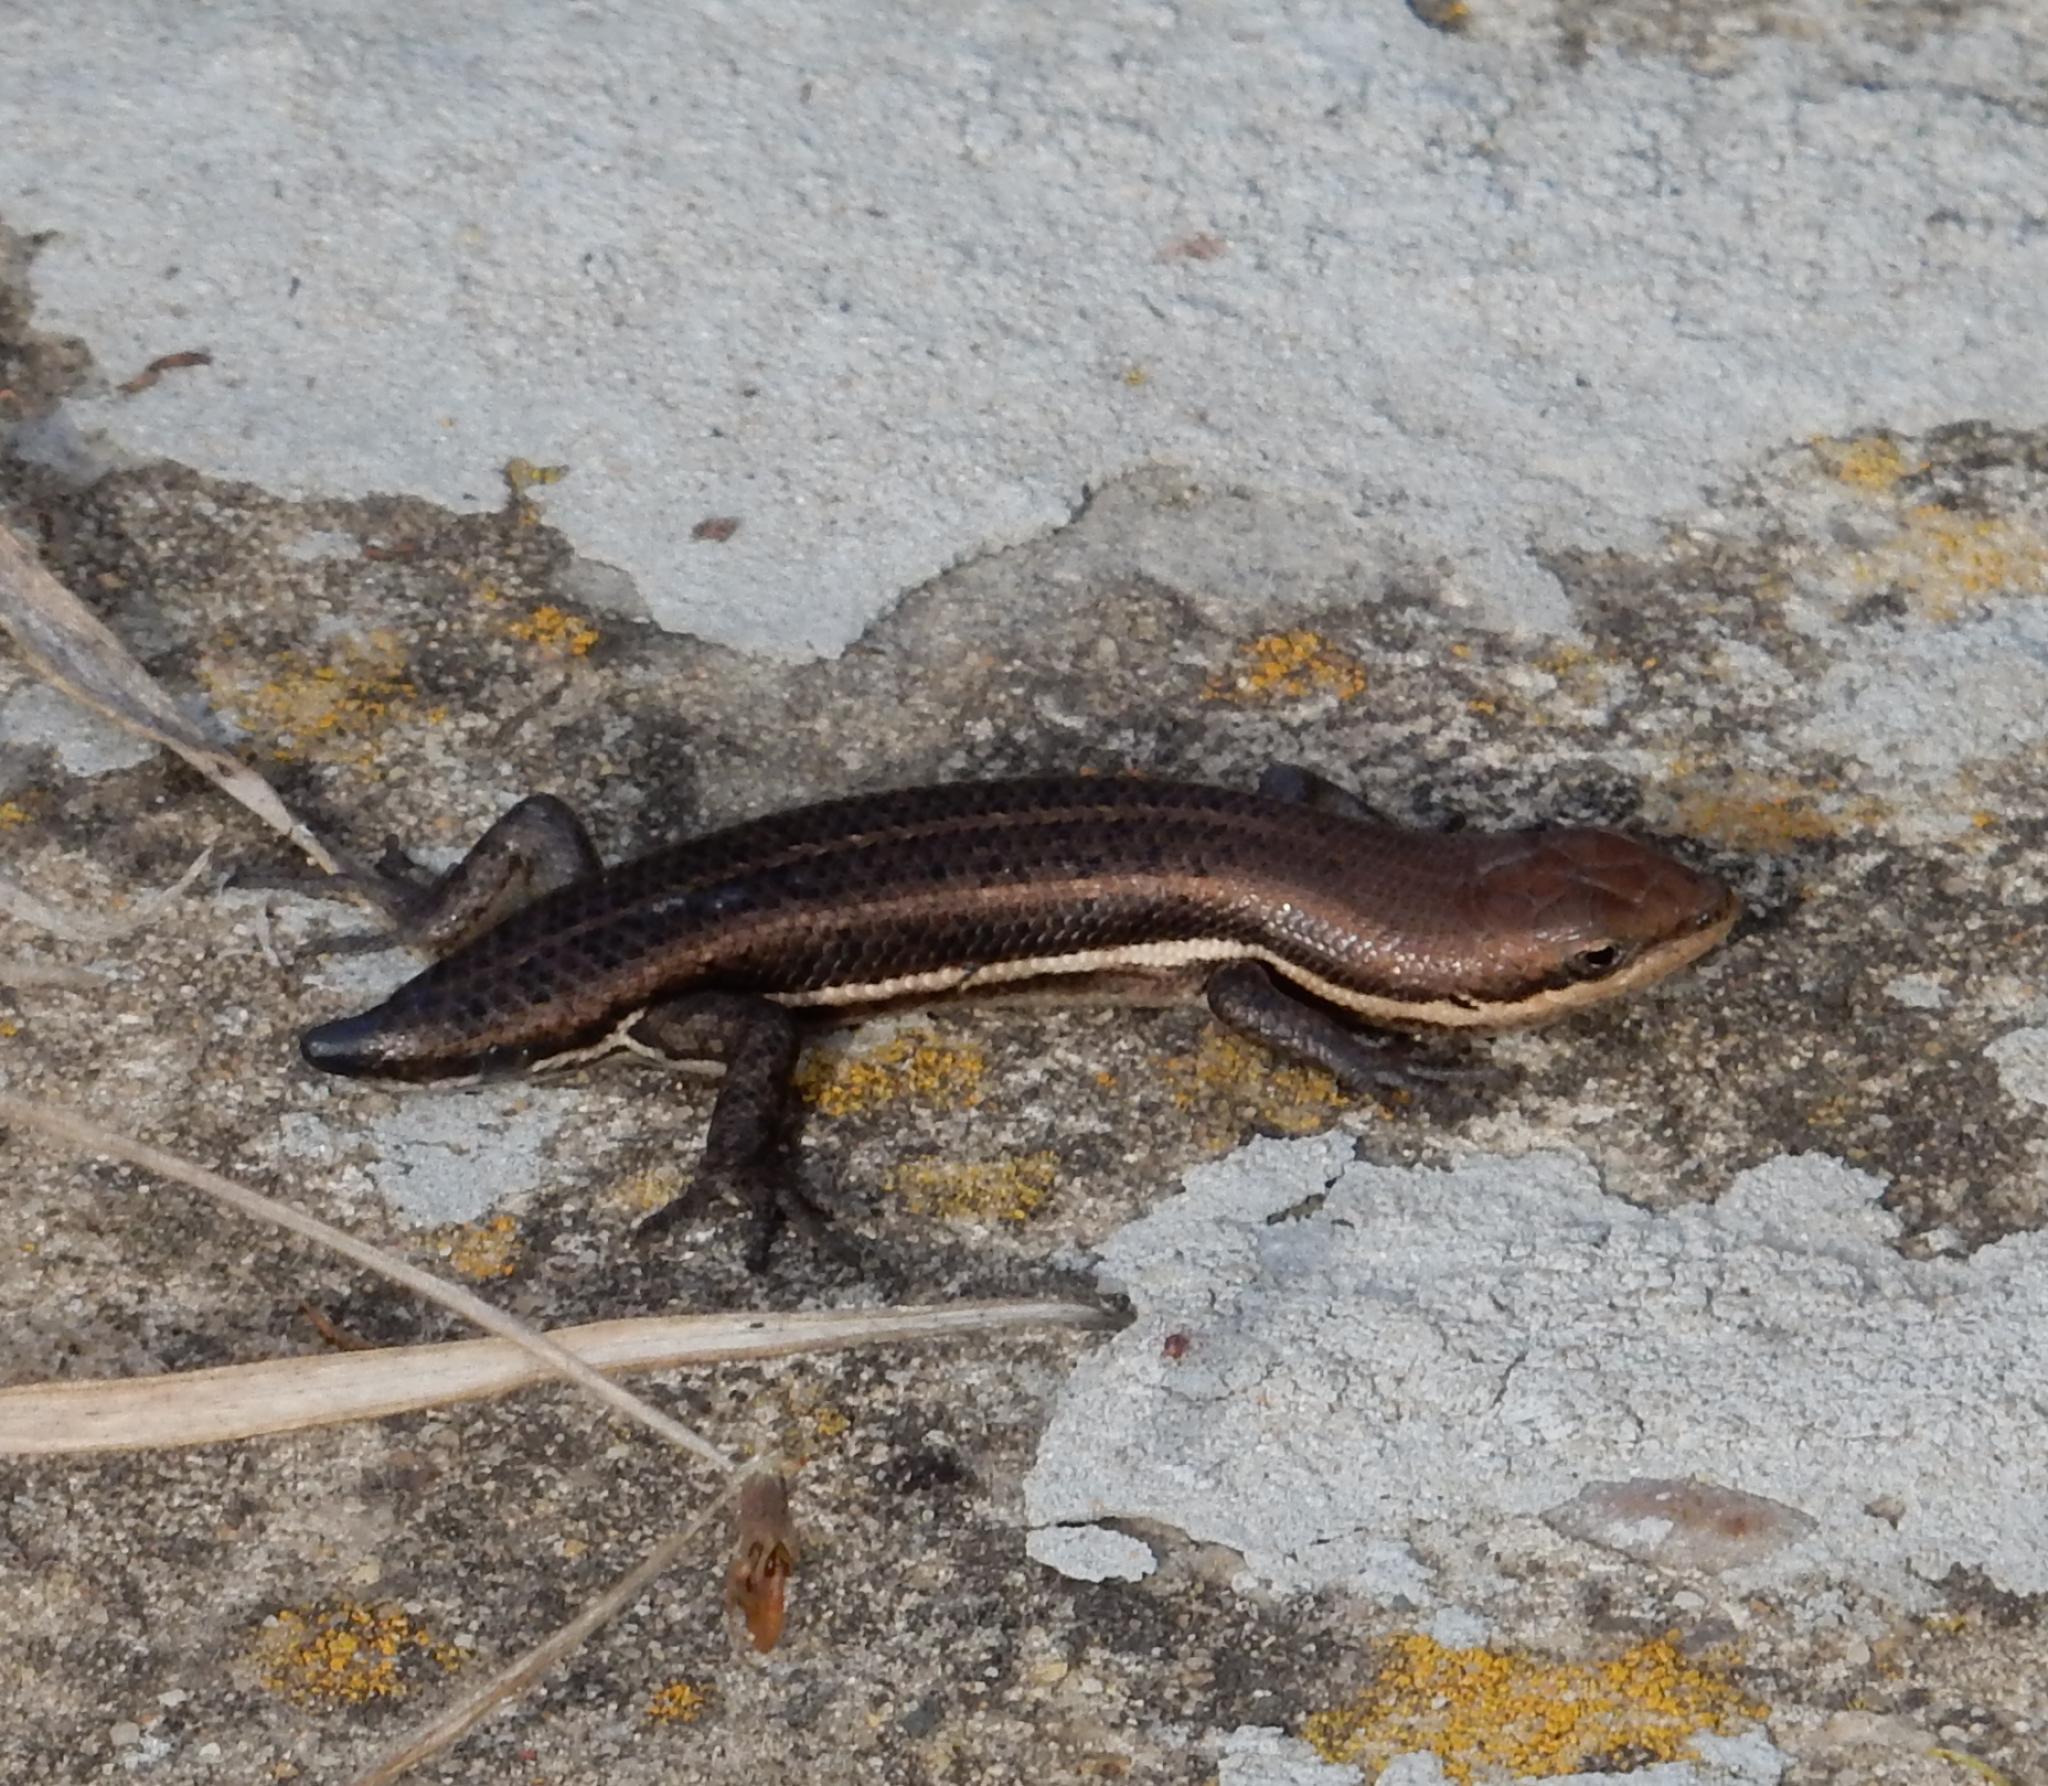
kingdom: Animalia
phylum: Chordata
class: Squamata
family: Scincidae
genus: Trachylepis
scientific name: Trachylepis varia
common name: Eastern variable skink
